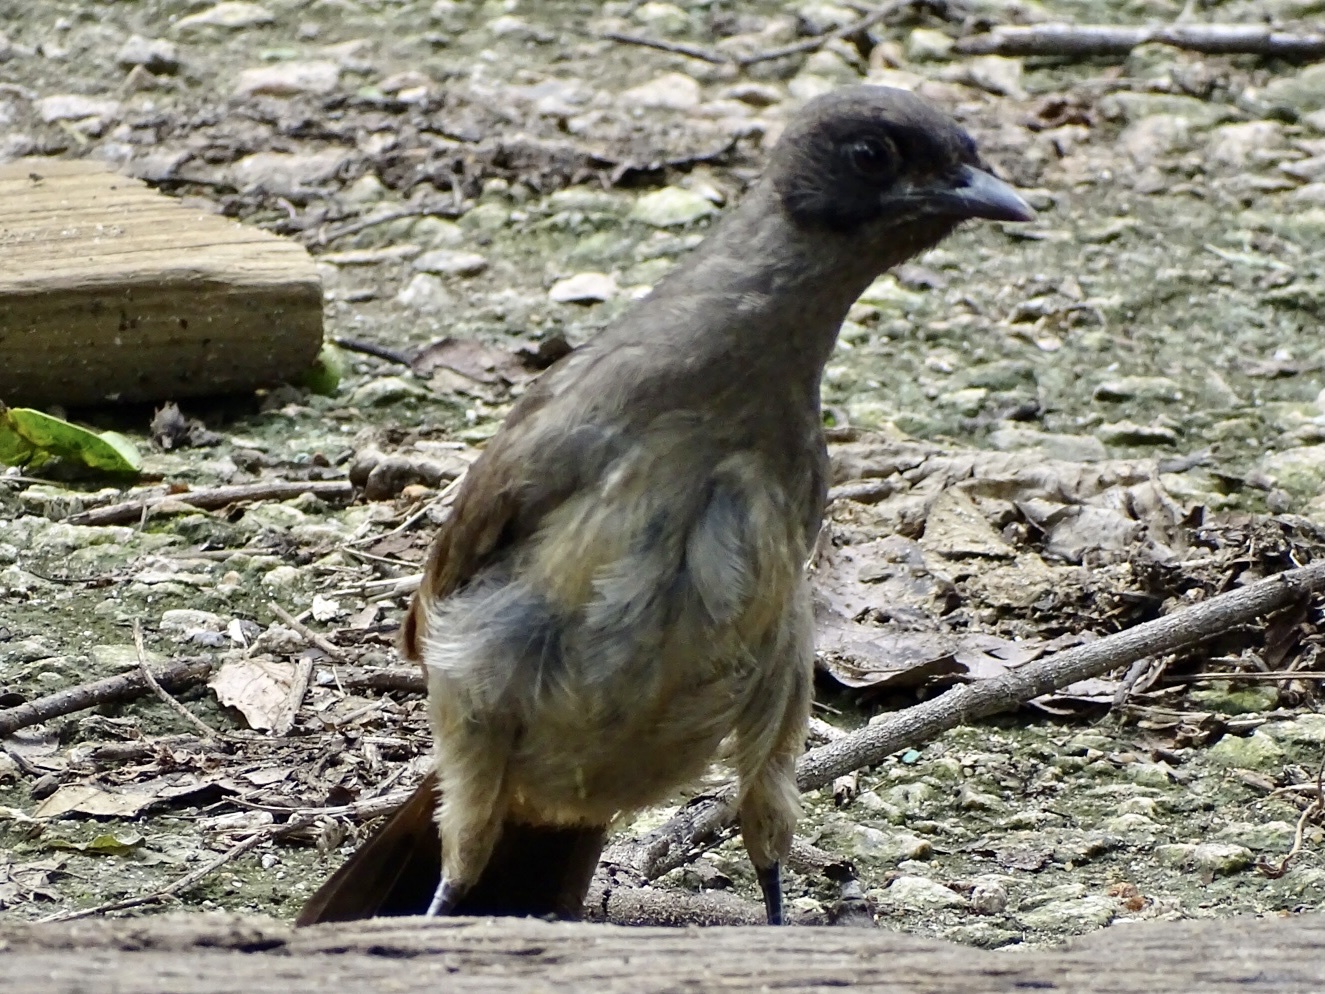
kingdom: Animalia
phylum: Chordata
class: Aves
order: Passeriformes
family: Leiothrichidae
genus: Garrulax
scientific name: Garrulax perspicillatus
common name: Masked laughingthrush
